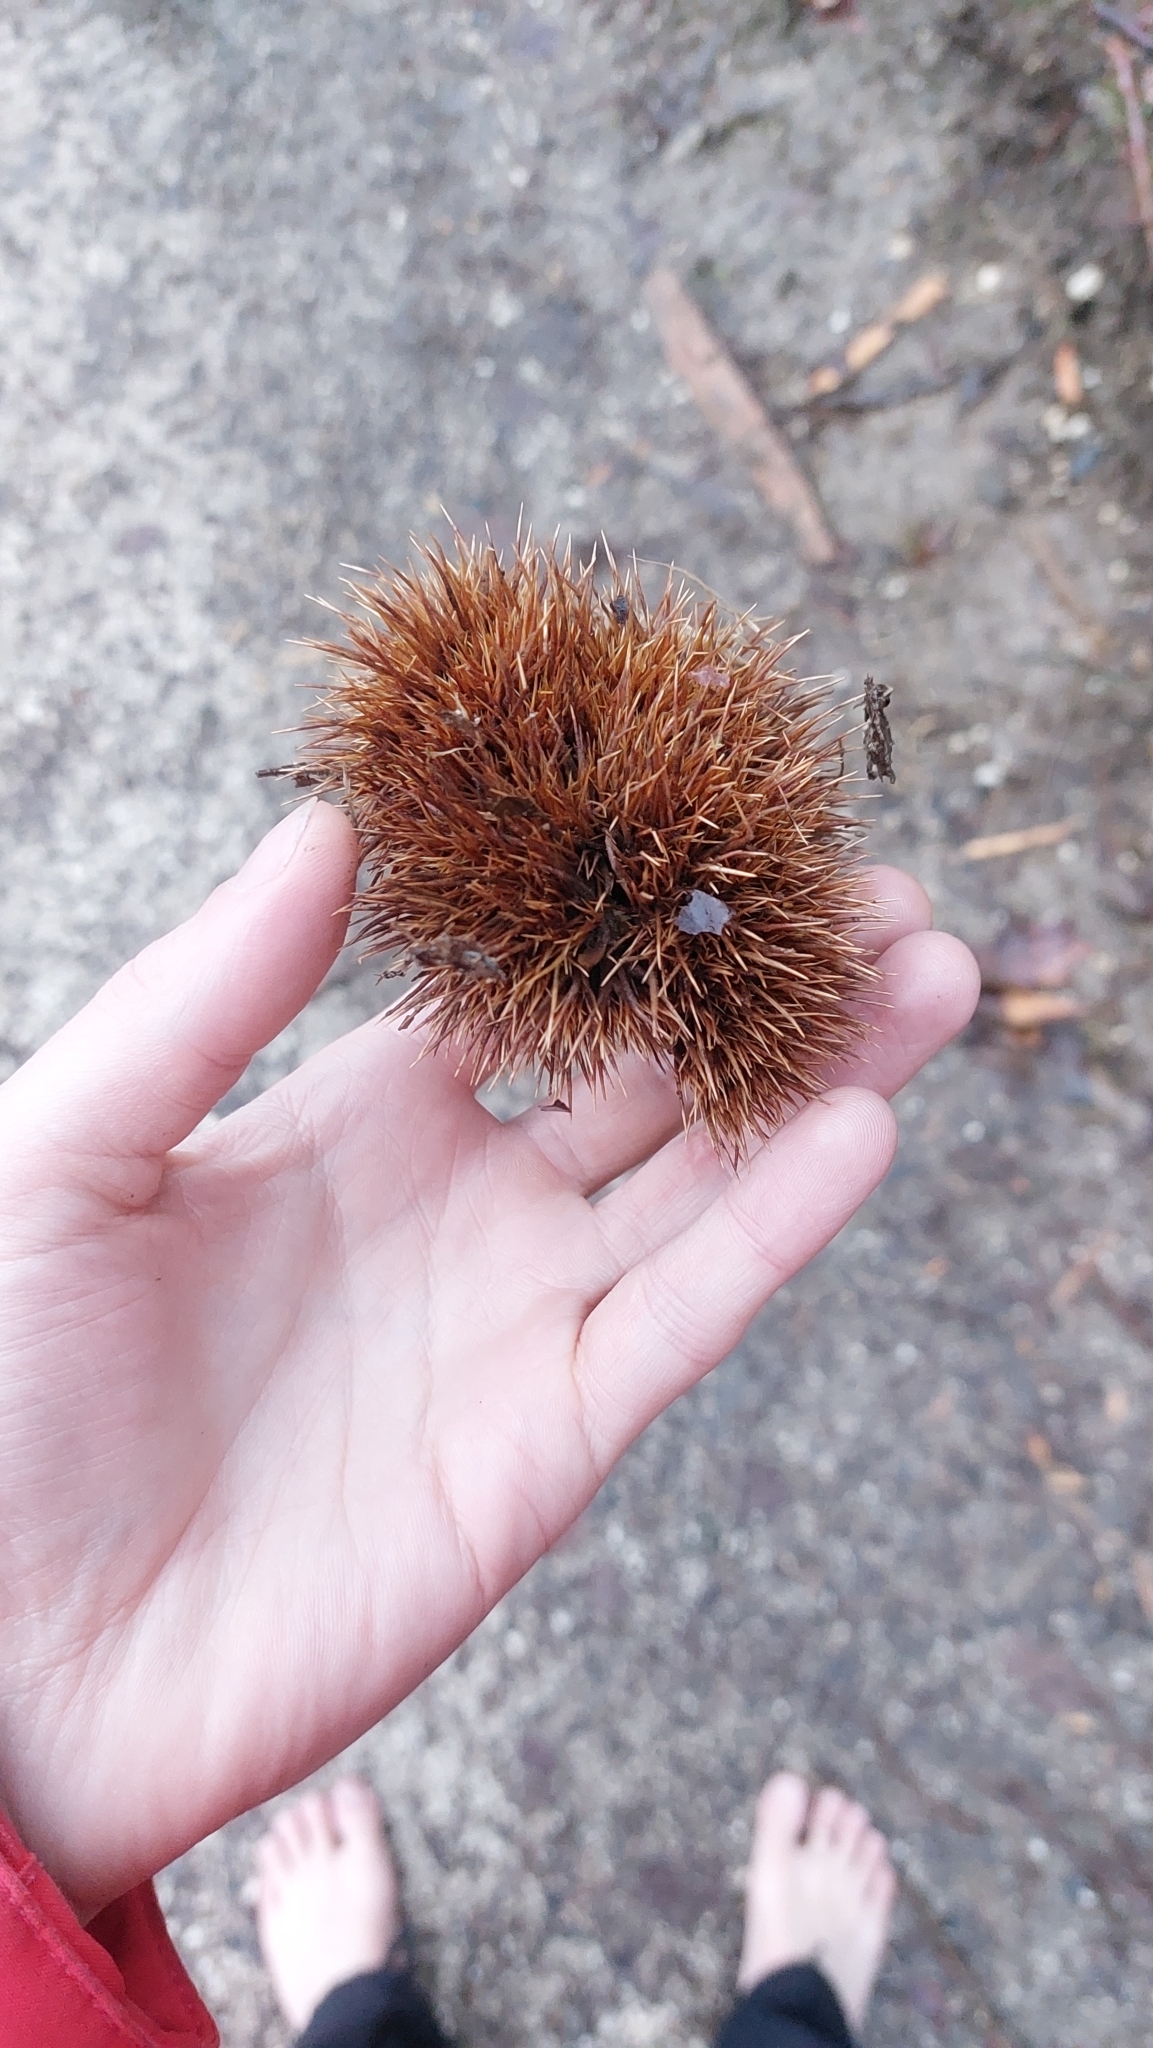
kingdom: Plantae
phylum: Tracheophyta
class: Magnoliopsida
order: Fagales
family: Fagaceae
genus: Castanea
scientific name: Castanea sativa
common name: Sweet chestnut
